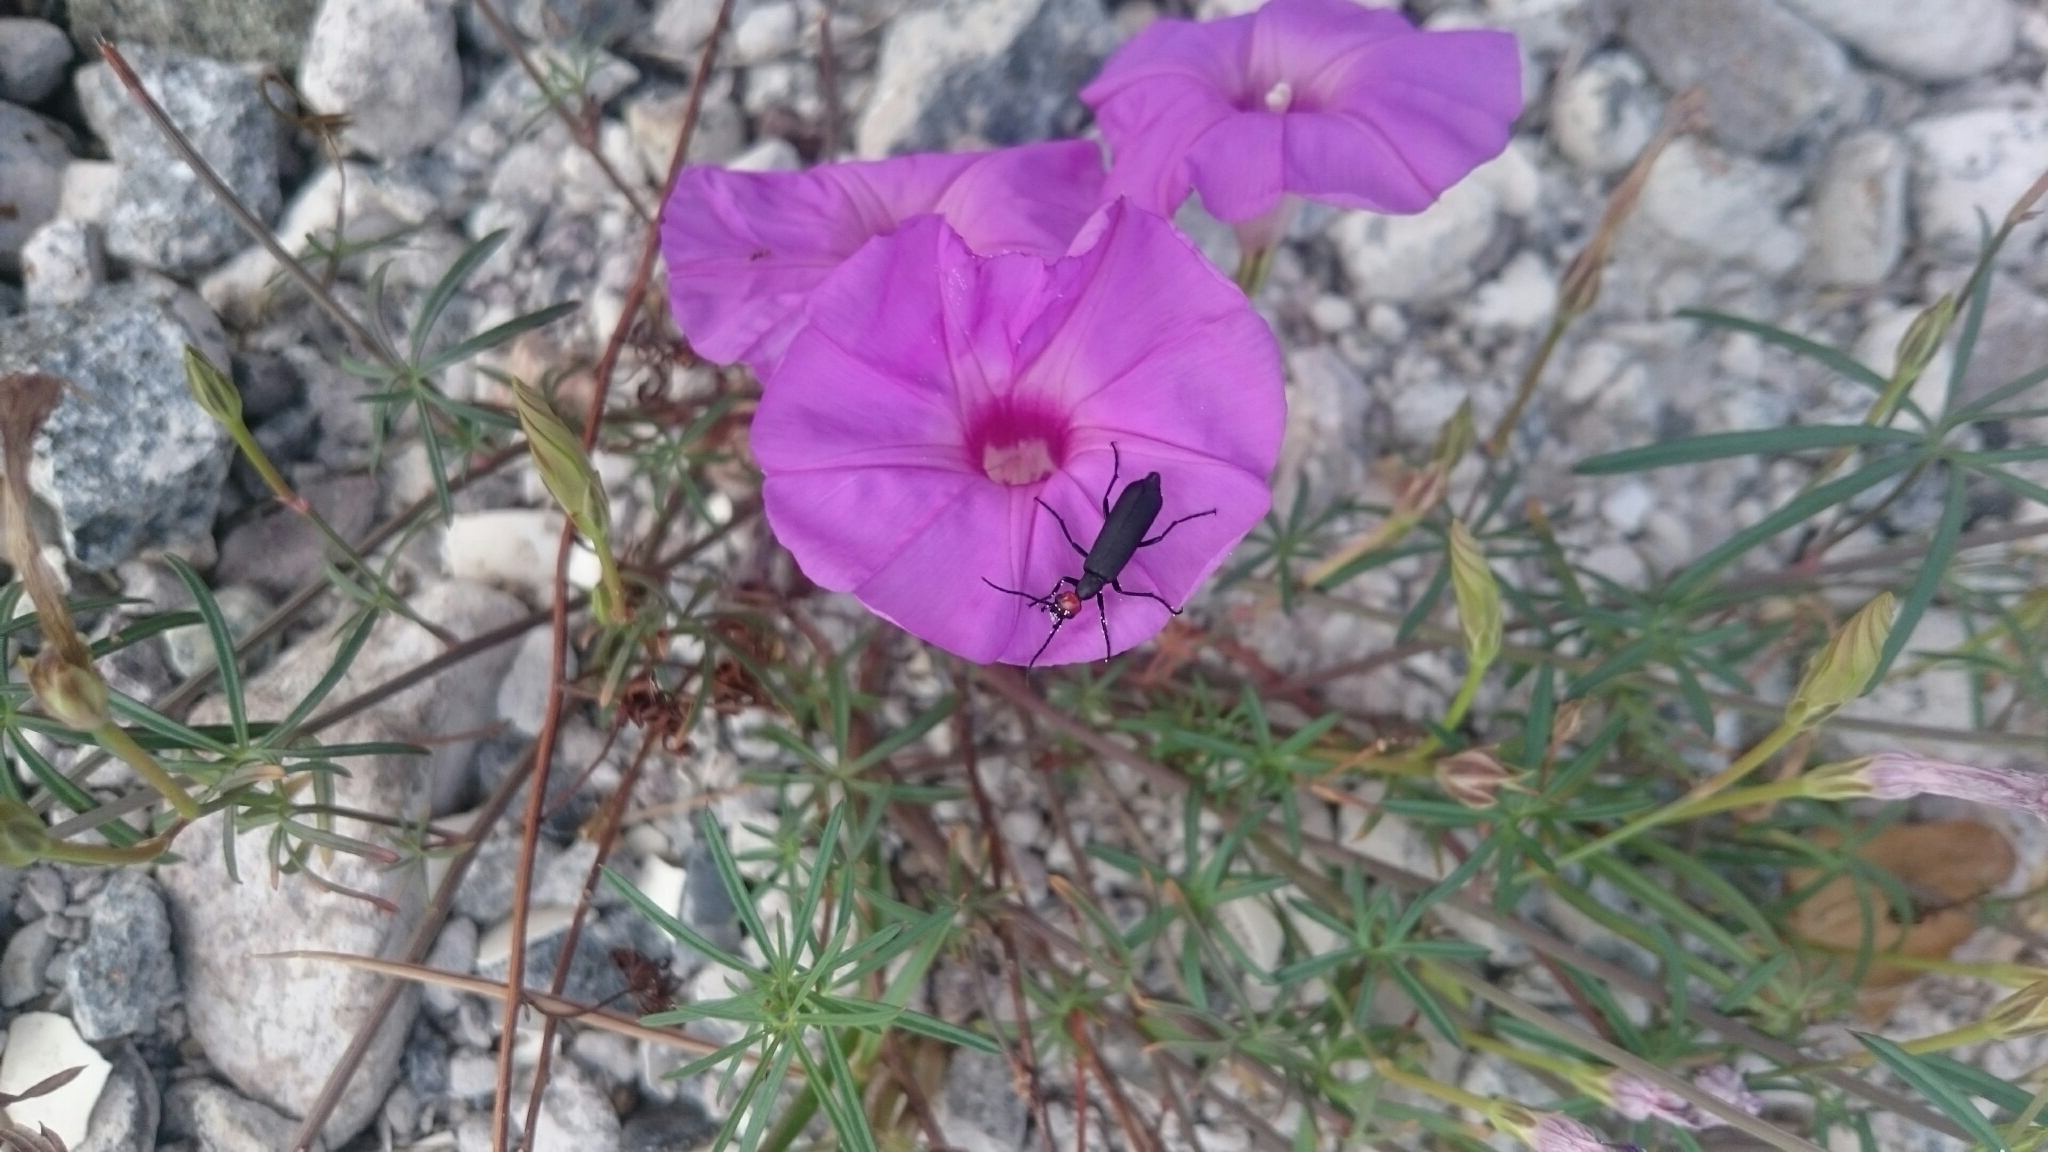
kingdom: Animalia
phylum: Arthropoda
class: Insecta
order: Coleoptera
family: Meloidae
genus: Epicauta
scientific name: Epicauta atrata
